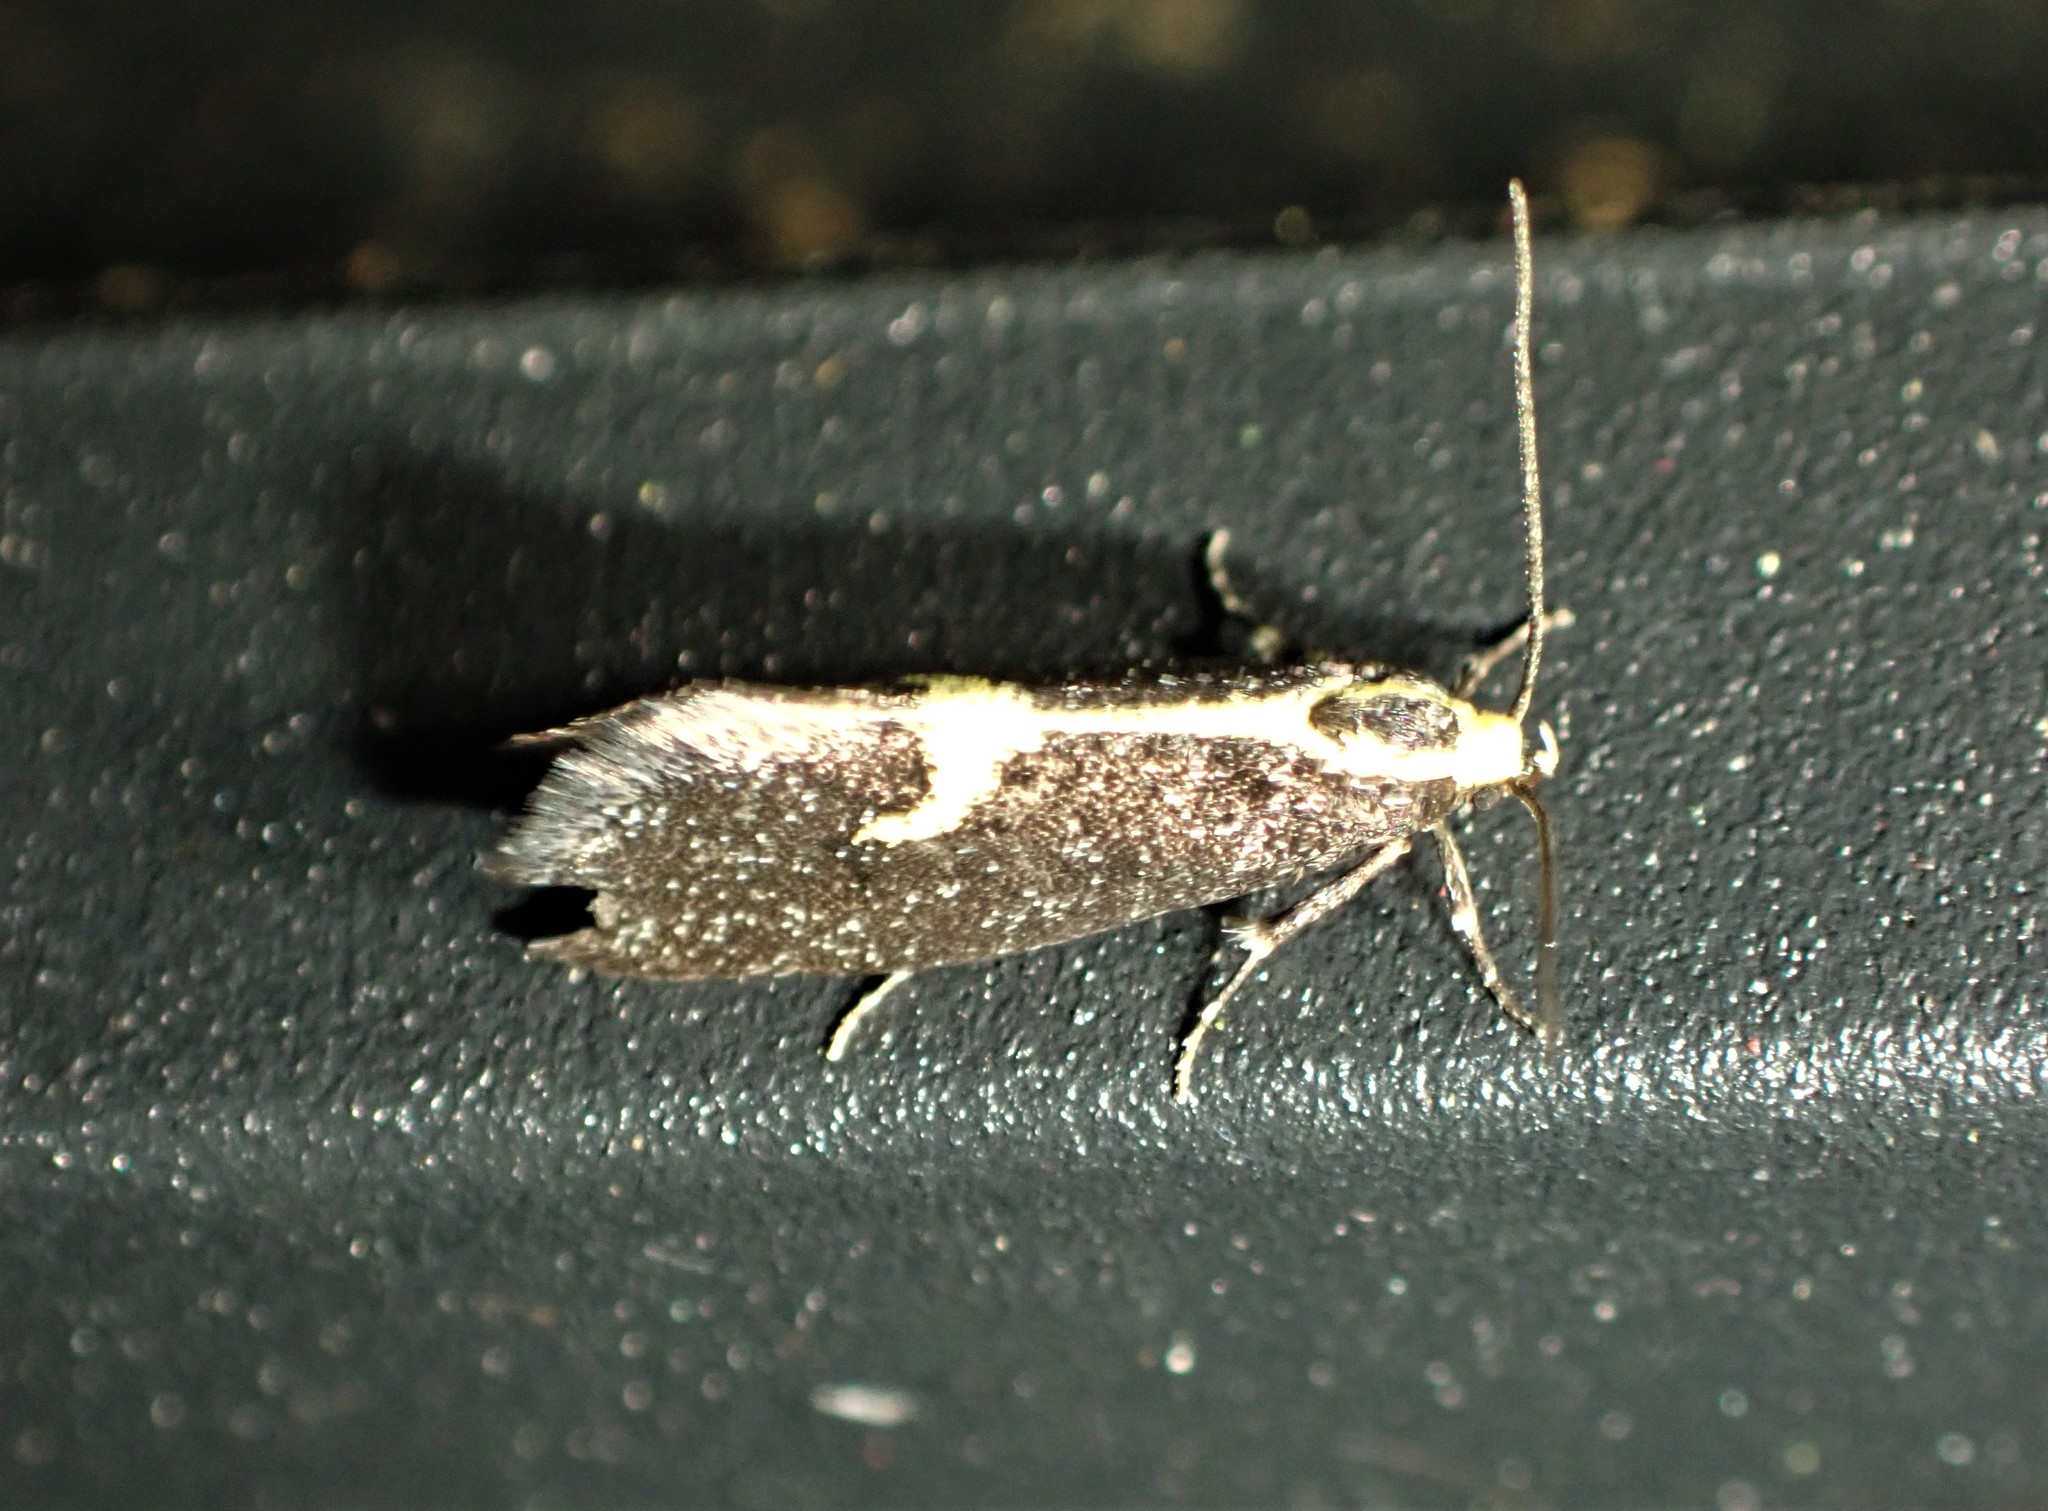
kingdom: Animalia
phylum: Arthropoda
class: Insecta
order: Lepidoptera
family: Oecophoridae
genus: Polix
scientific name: Polix coloradella
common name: Skunk moth
